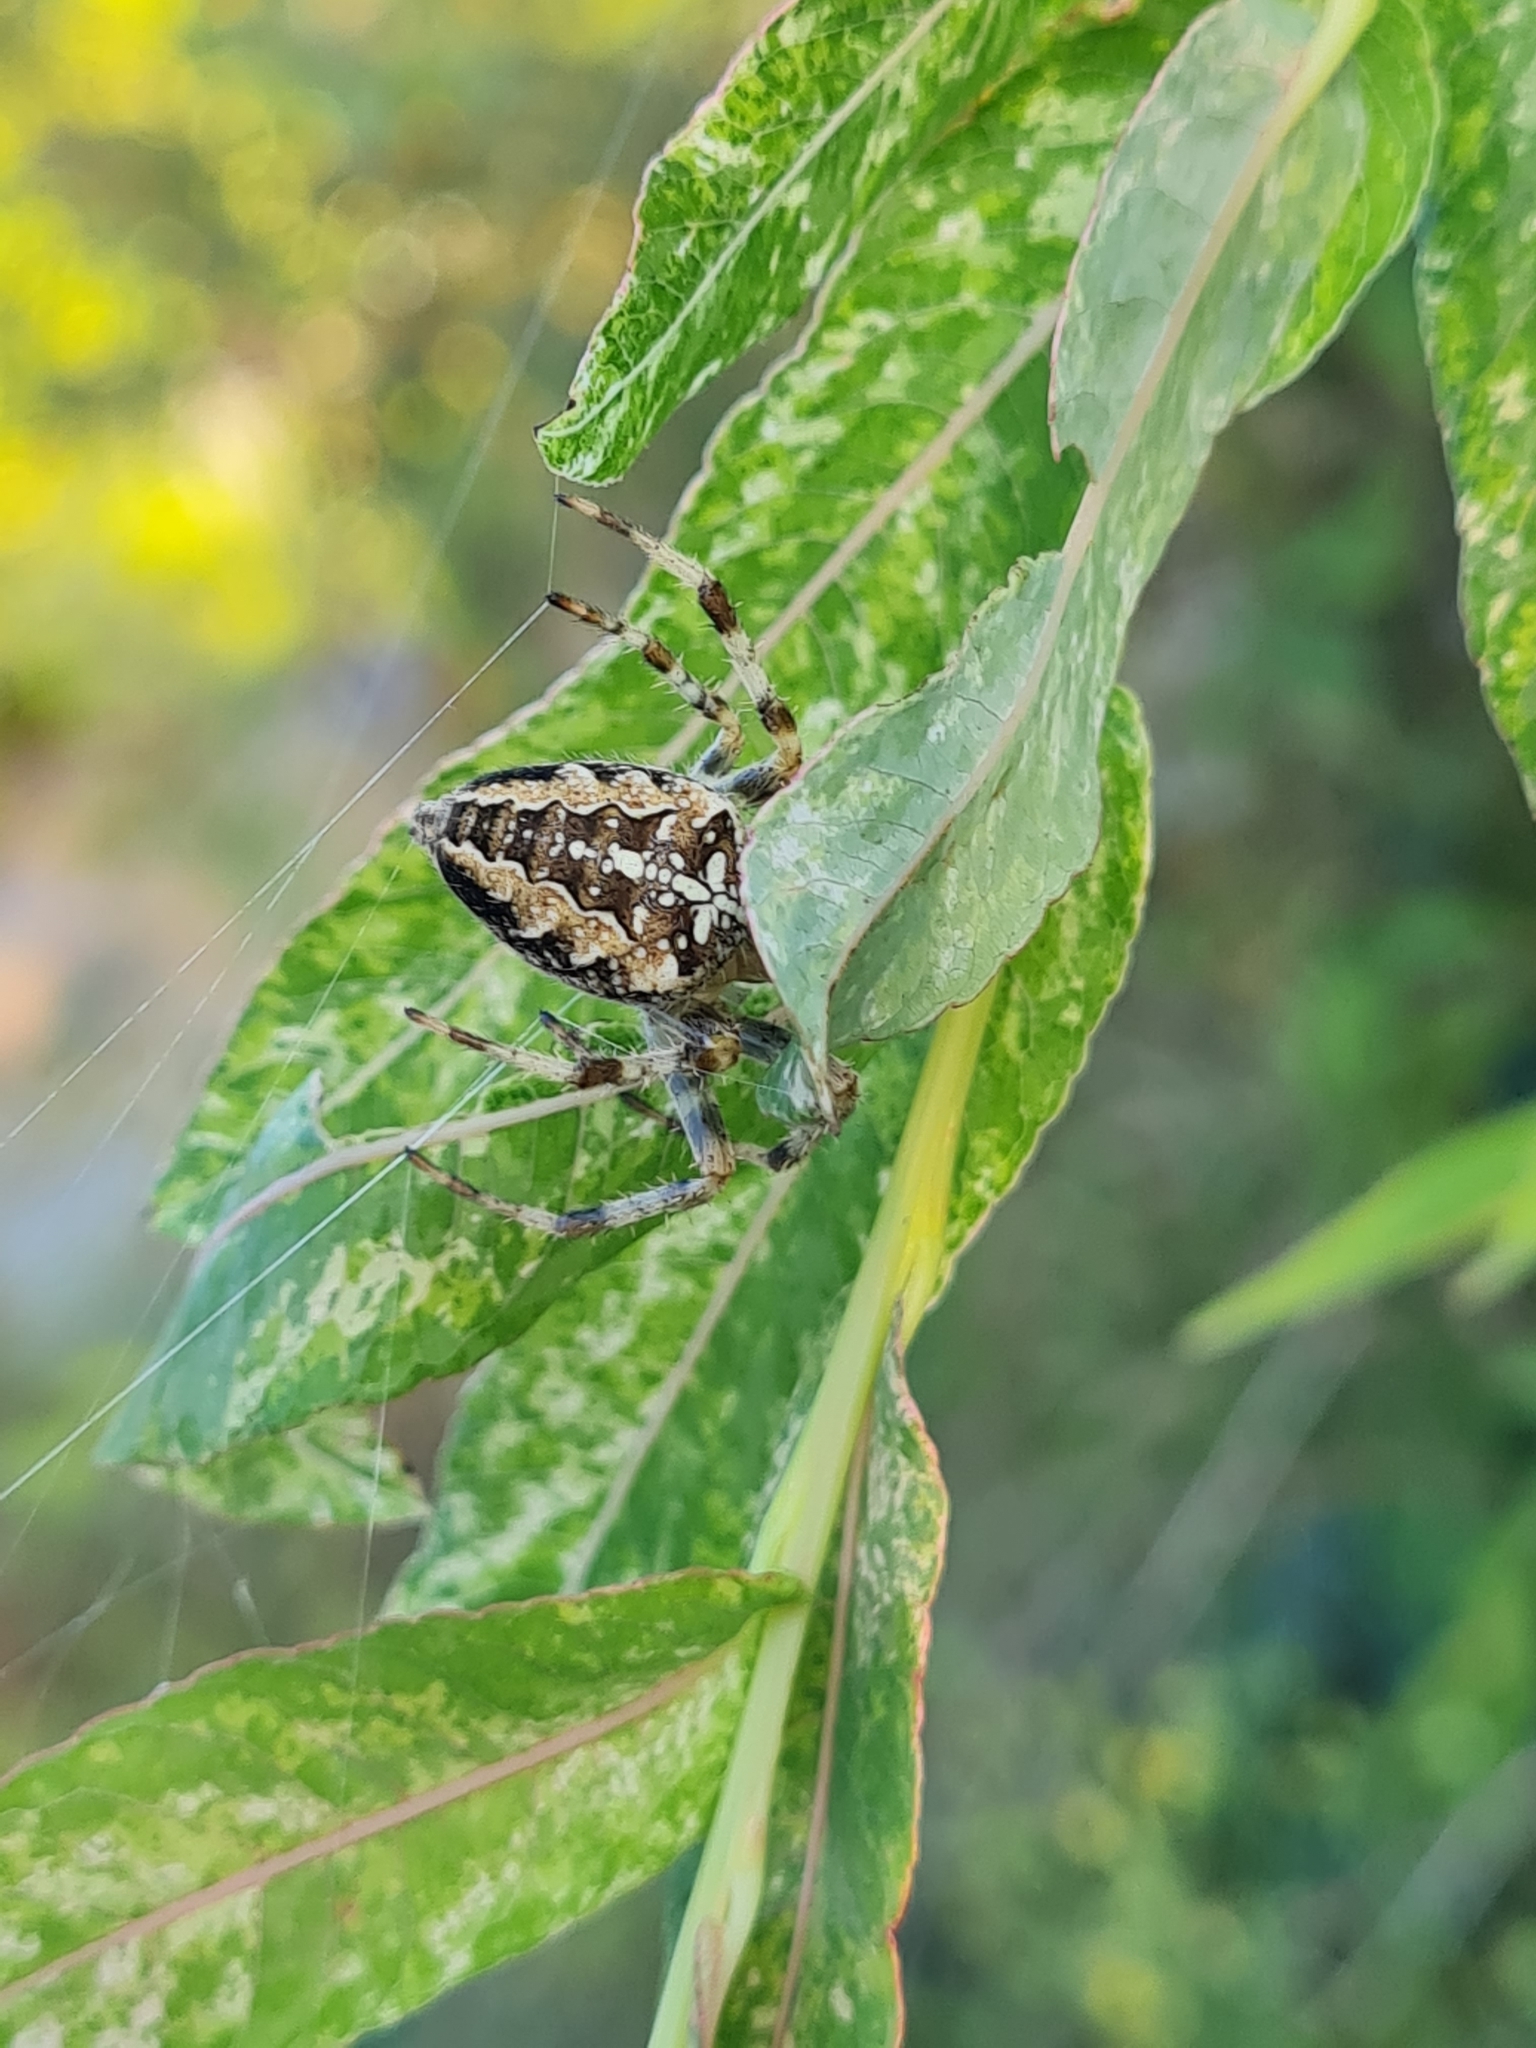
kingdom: Animalia
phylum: Arthropoda
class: Arachnida
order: Araneae
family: Araneidae
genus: Araneus
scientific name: Araneus diadematus
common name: Cross orbweaver
